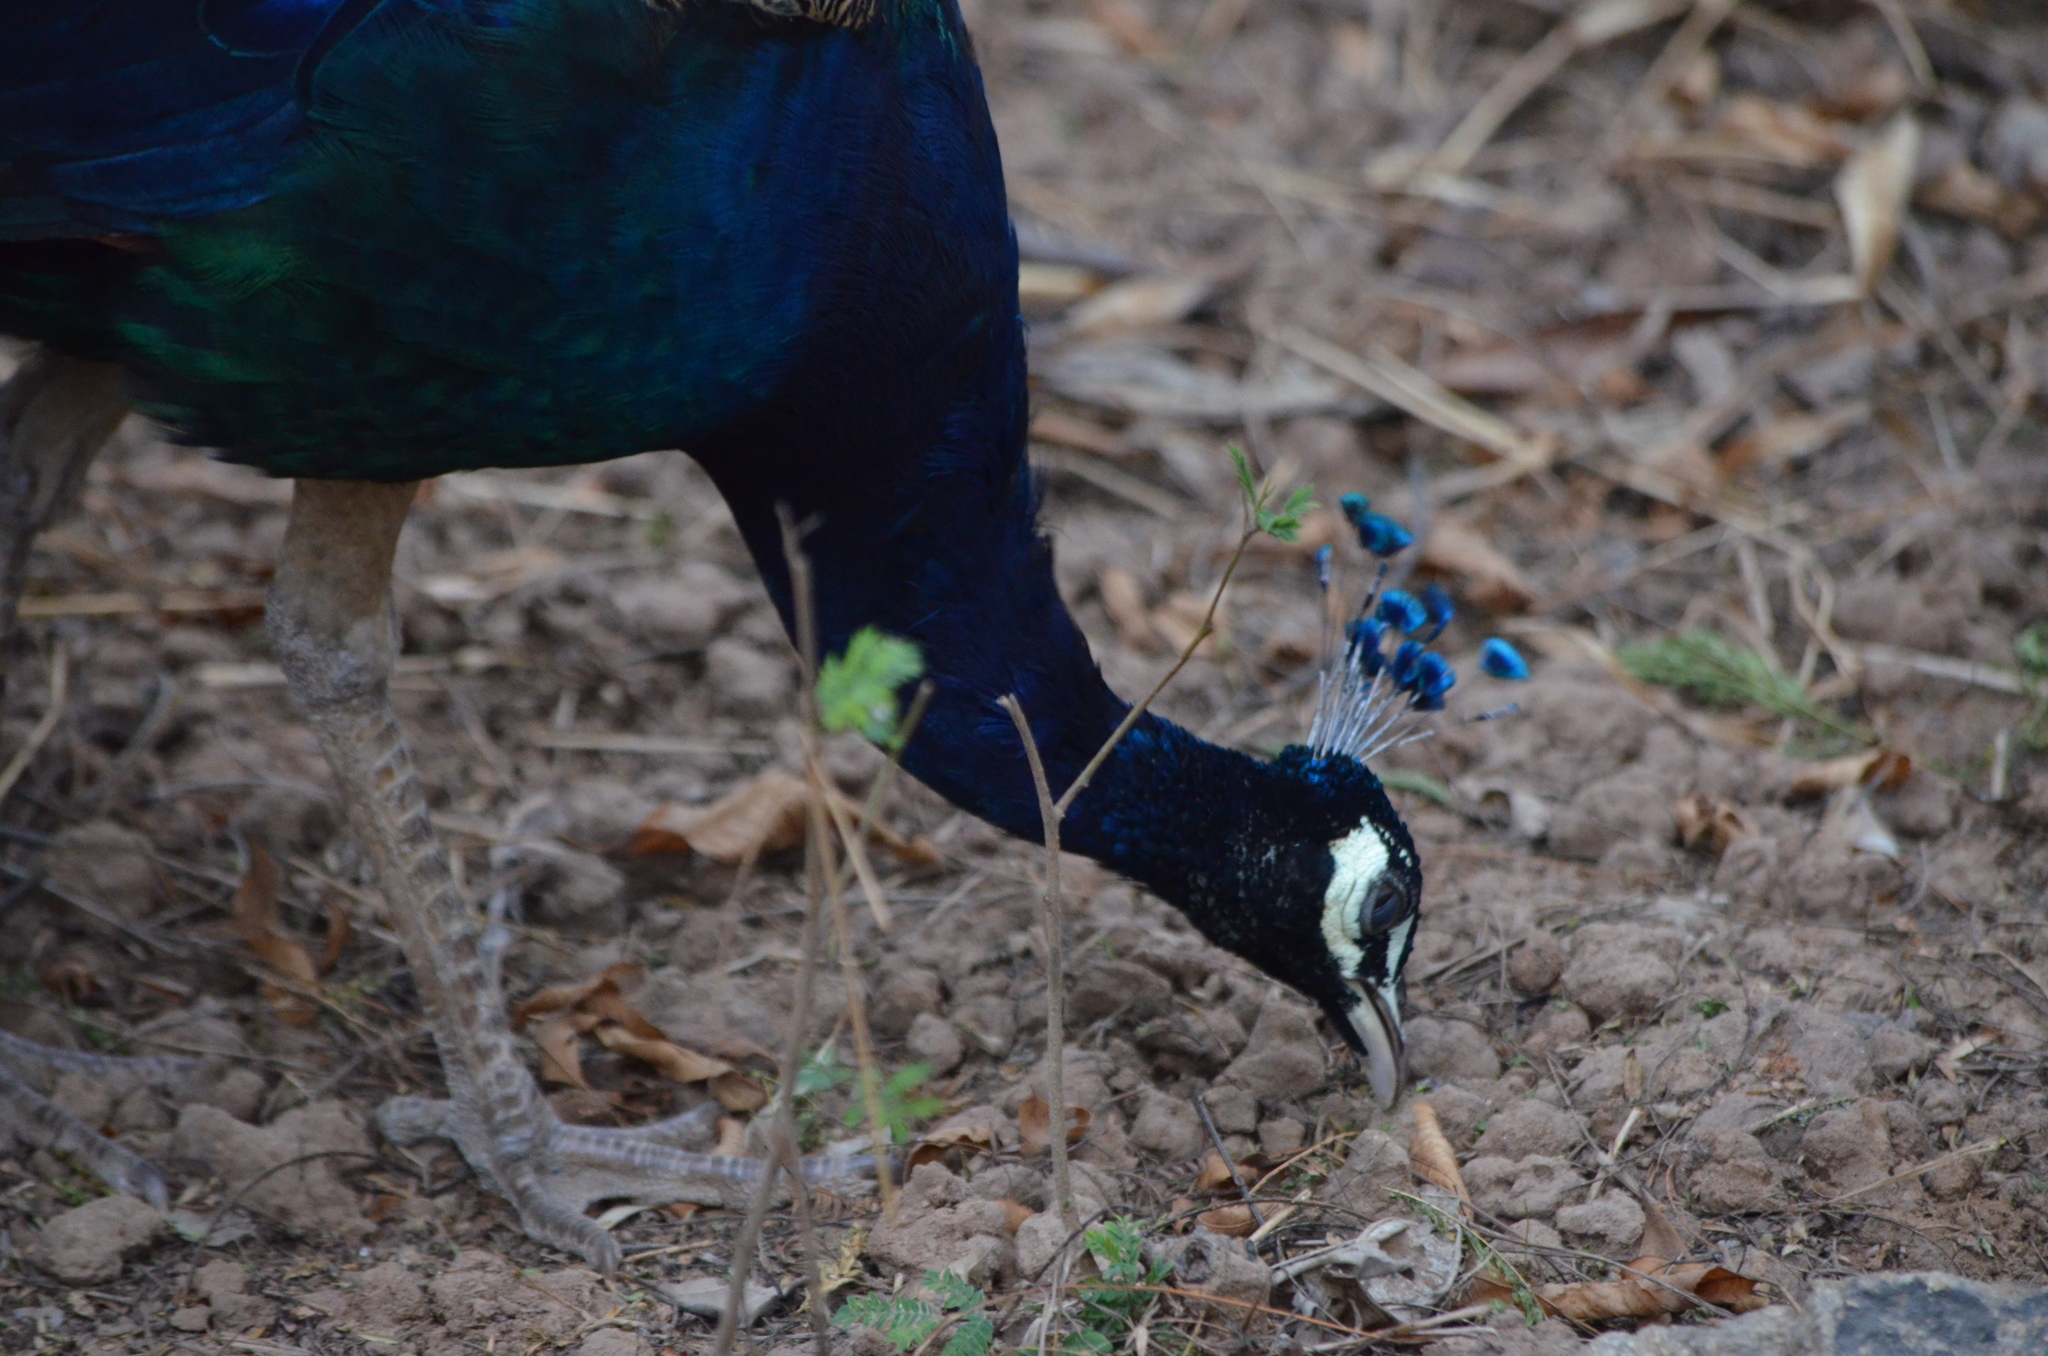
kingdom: Animalia
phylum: Chordata
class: Aves
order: Galliformes
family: Phasianidae
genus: Pavo
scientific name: Pavo cristatus
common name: Indian peafowl
